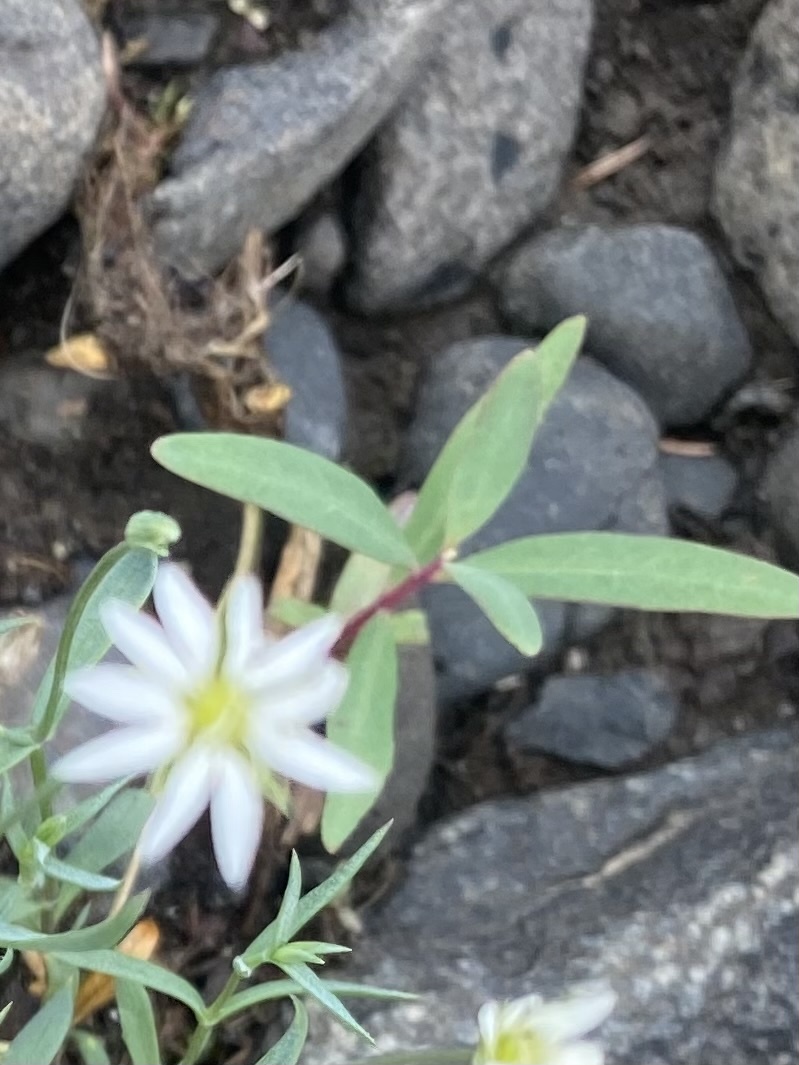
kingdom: Plantae
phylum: Tracheophyta
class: Magnoliopsida
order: Myrtales
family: Onagraceae
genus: Chamaenerion
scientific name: Chamaenerion latifolium
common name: Dwarf fireweed
